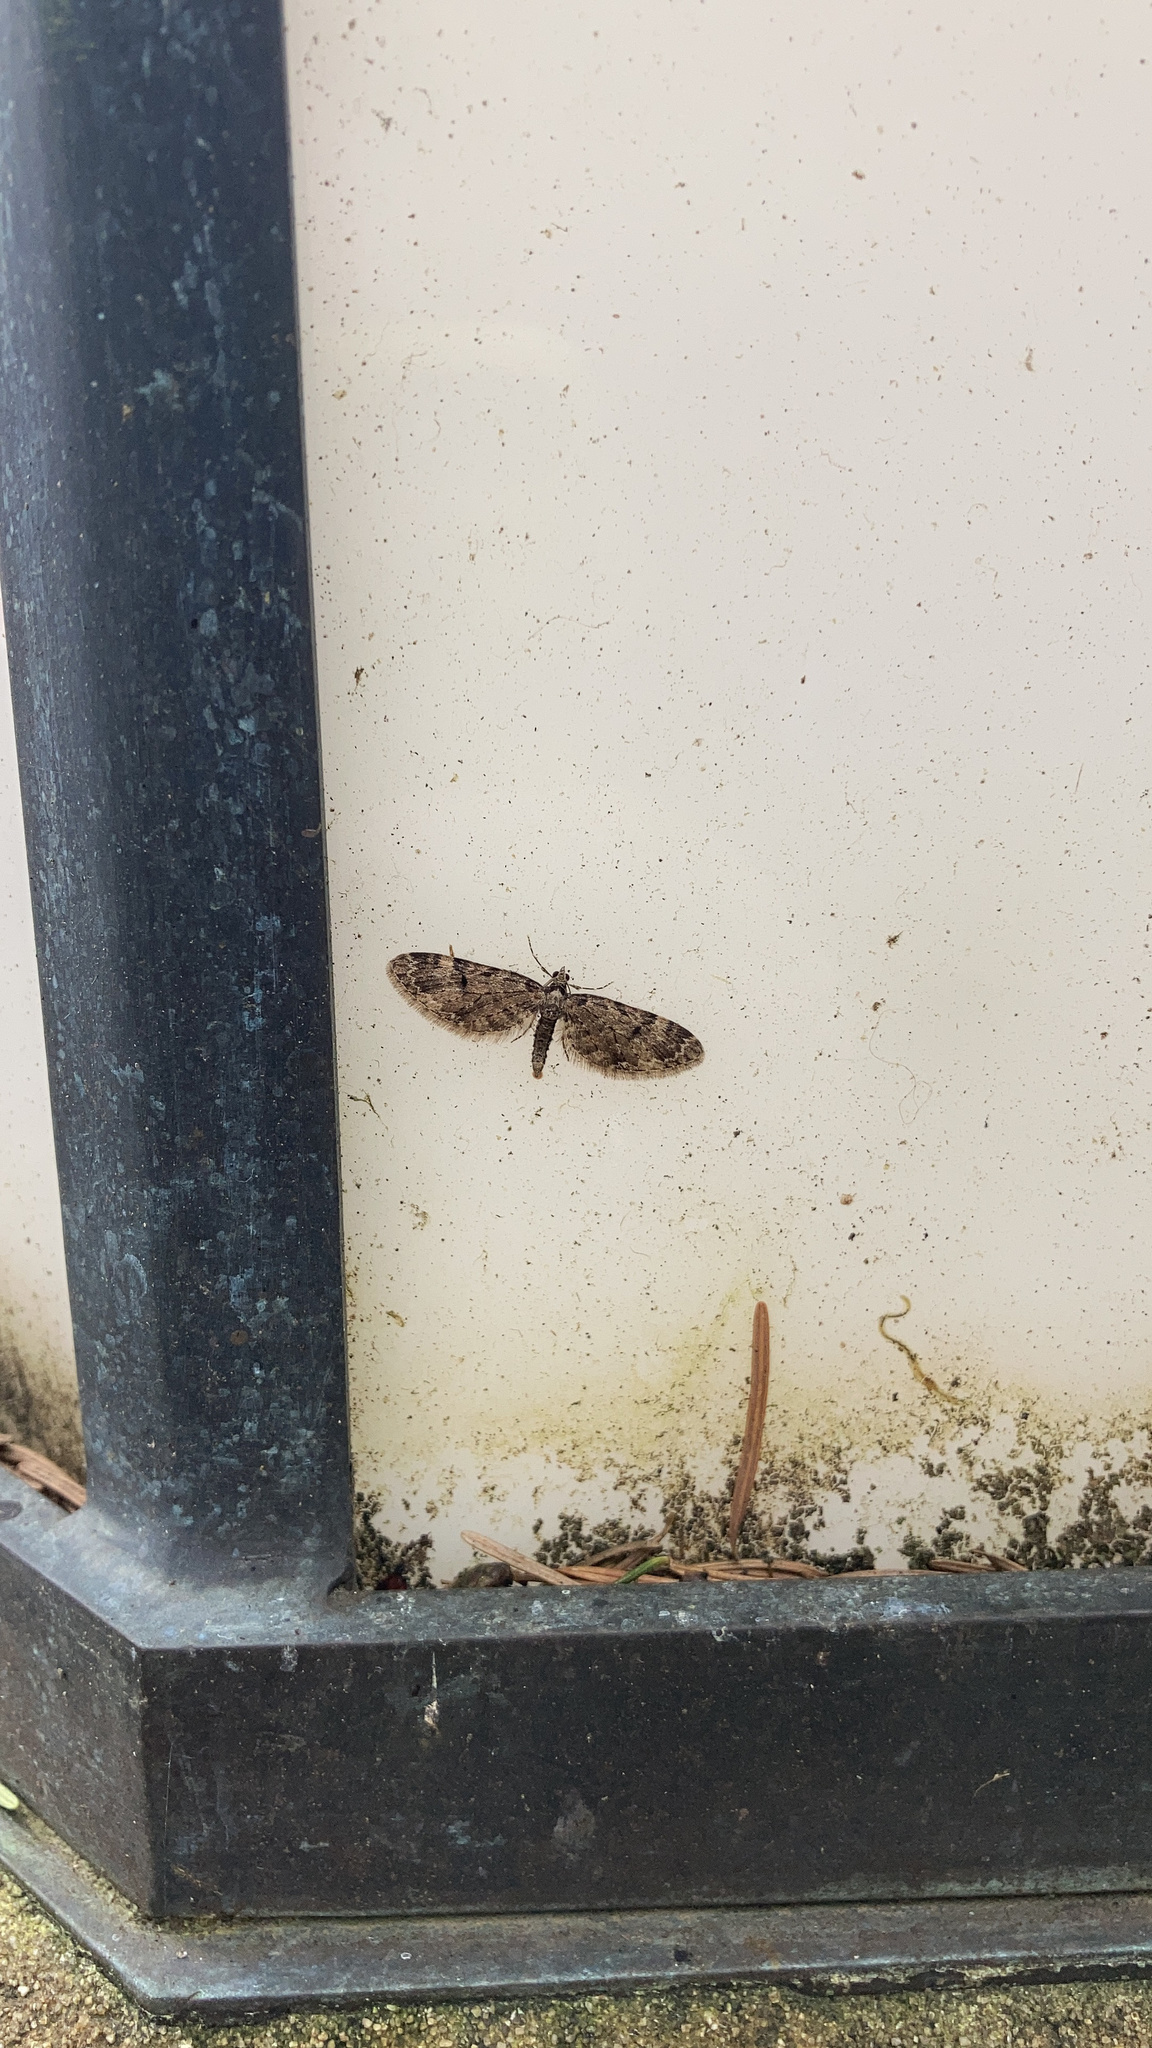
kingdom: Animalia
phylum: Arthropoda
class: Insecta
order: Lepidoptera
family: Geometridae
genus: Eupithecia
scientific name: Eupithecia annulata
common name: Larch pug moth
